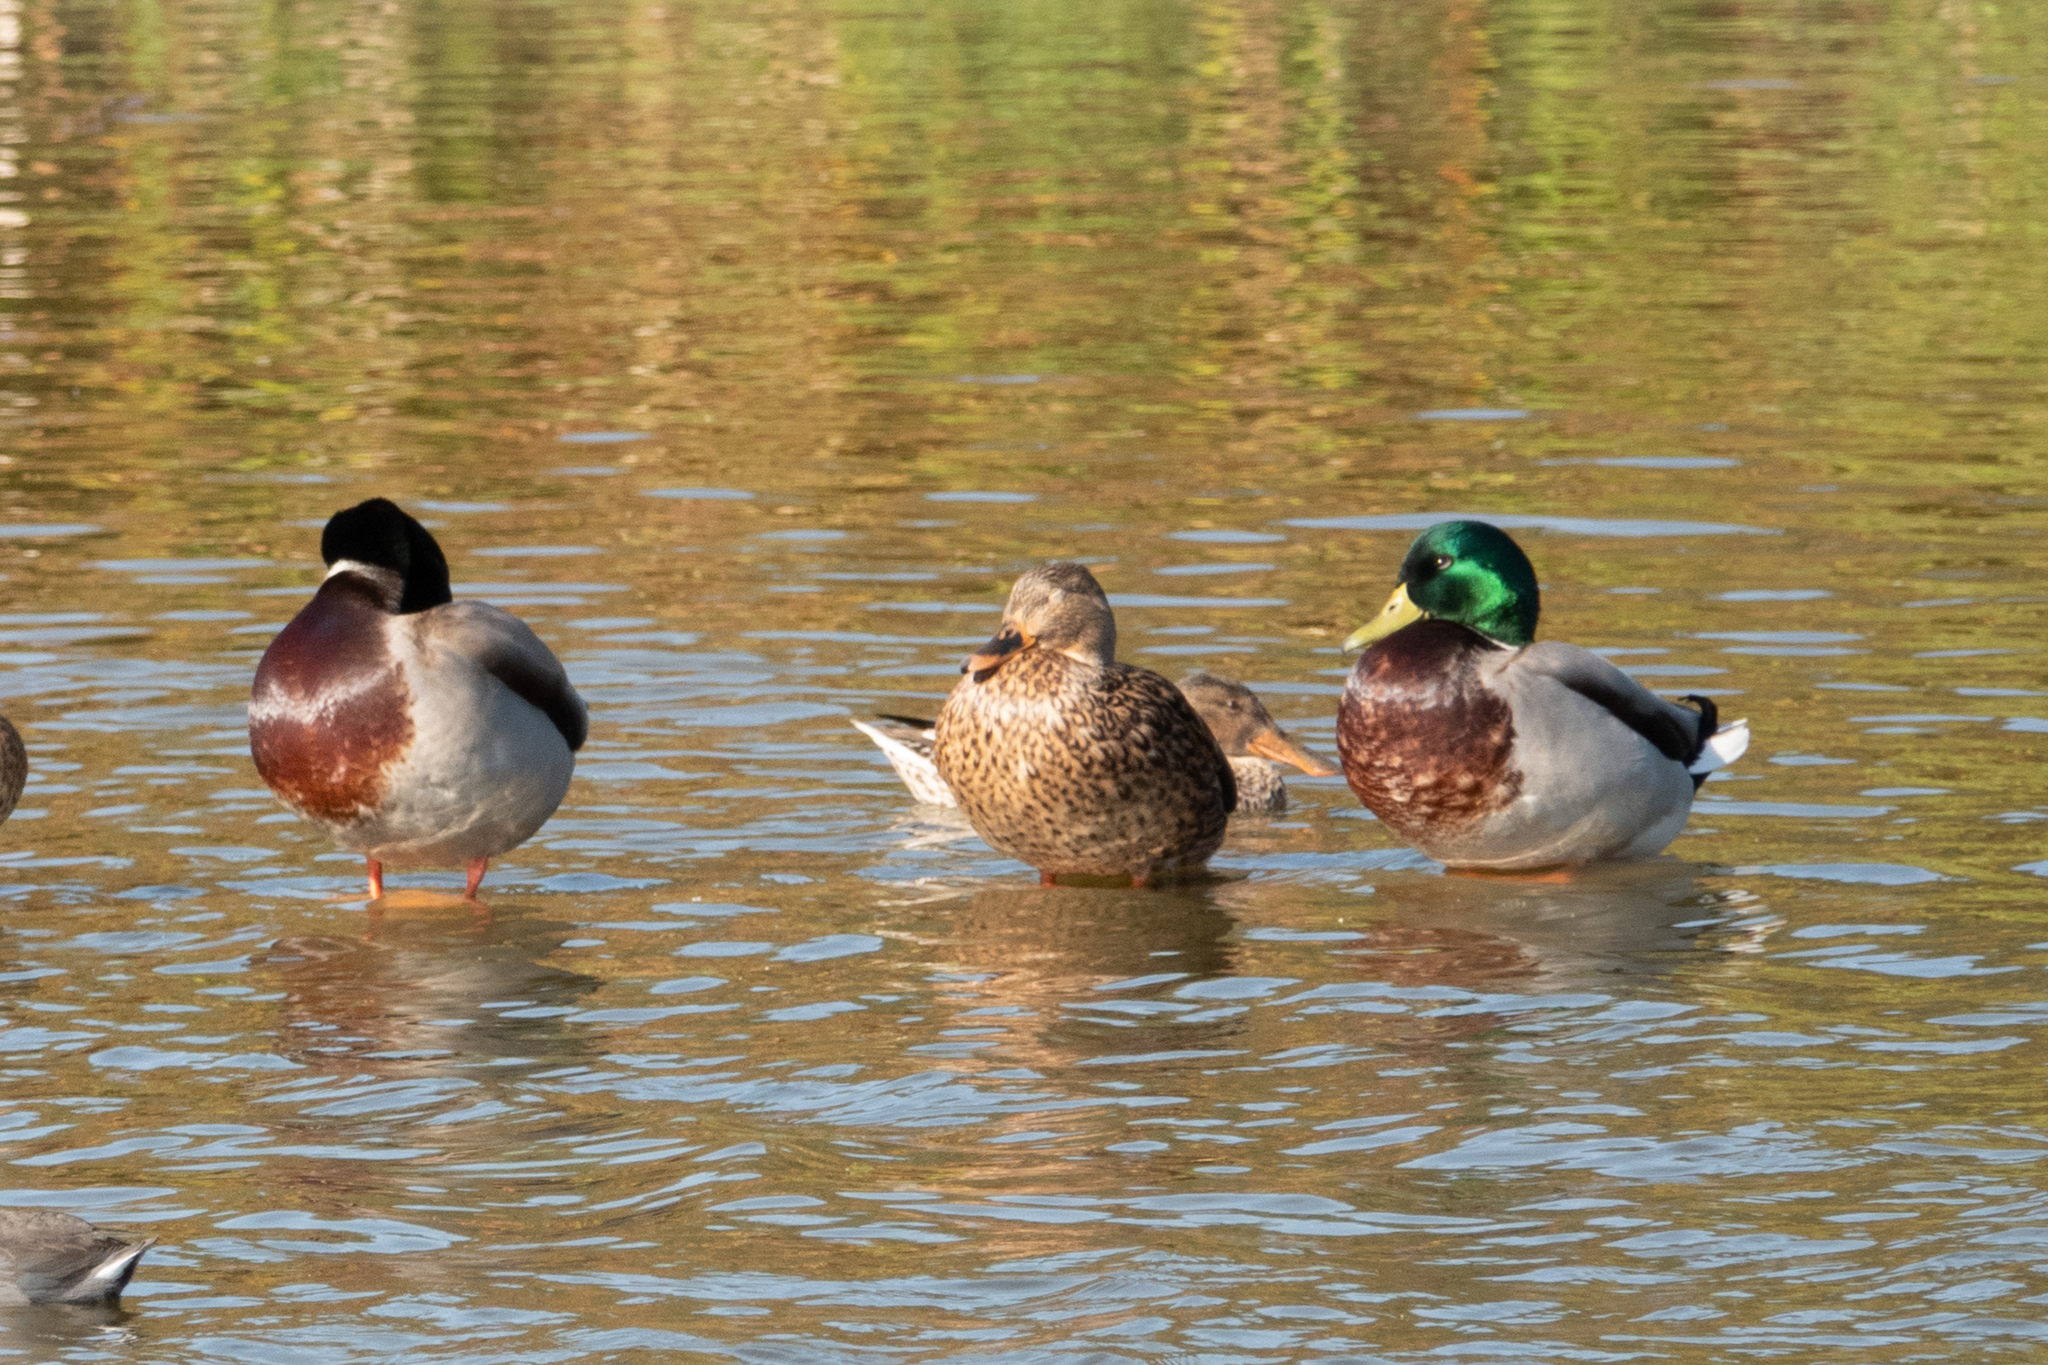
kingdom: Animalia
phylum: Chordata
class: Aves
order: Anseriformes
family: Anatidae
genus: Anas
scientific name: Anas platyrhynchos
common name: Mallard
